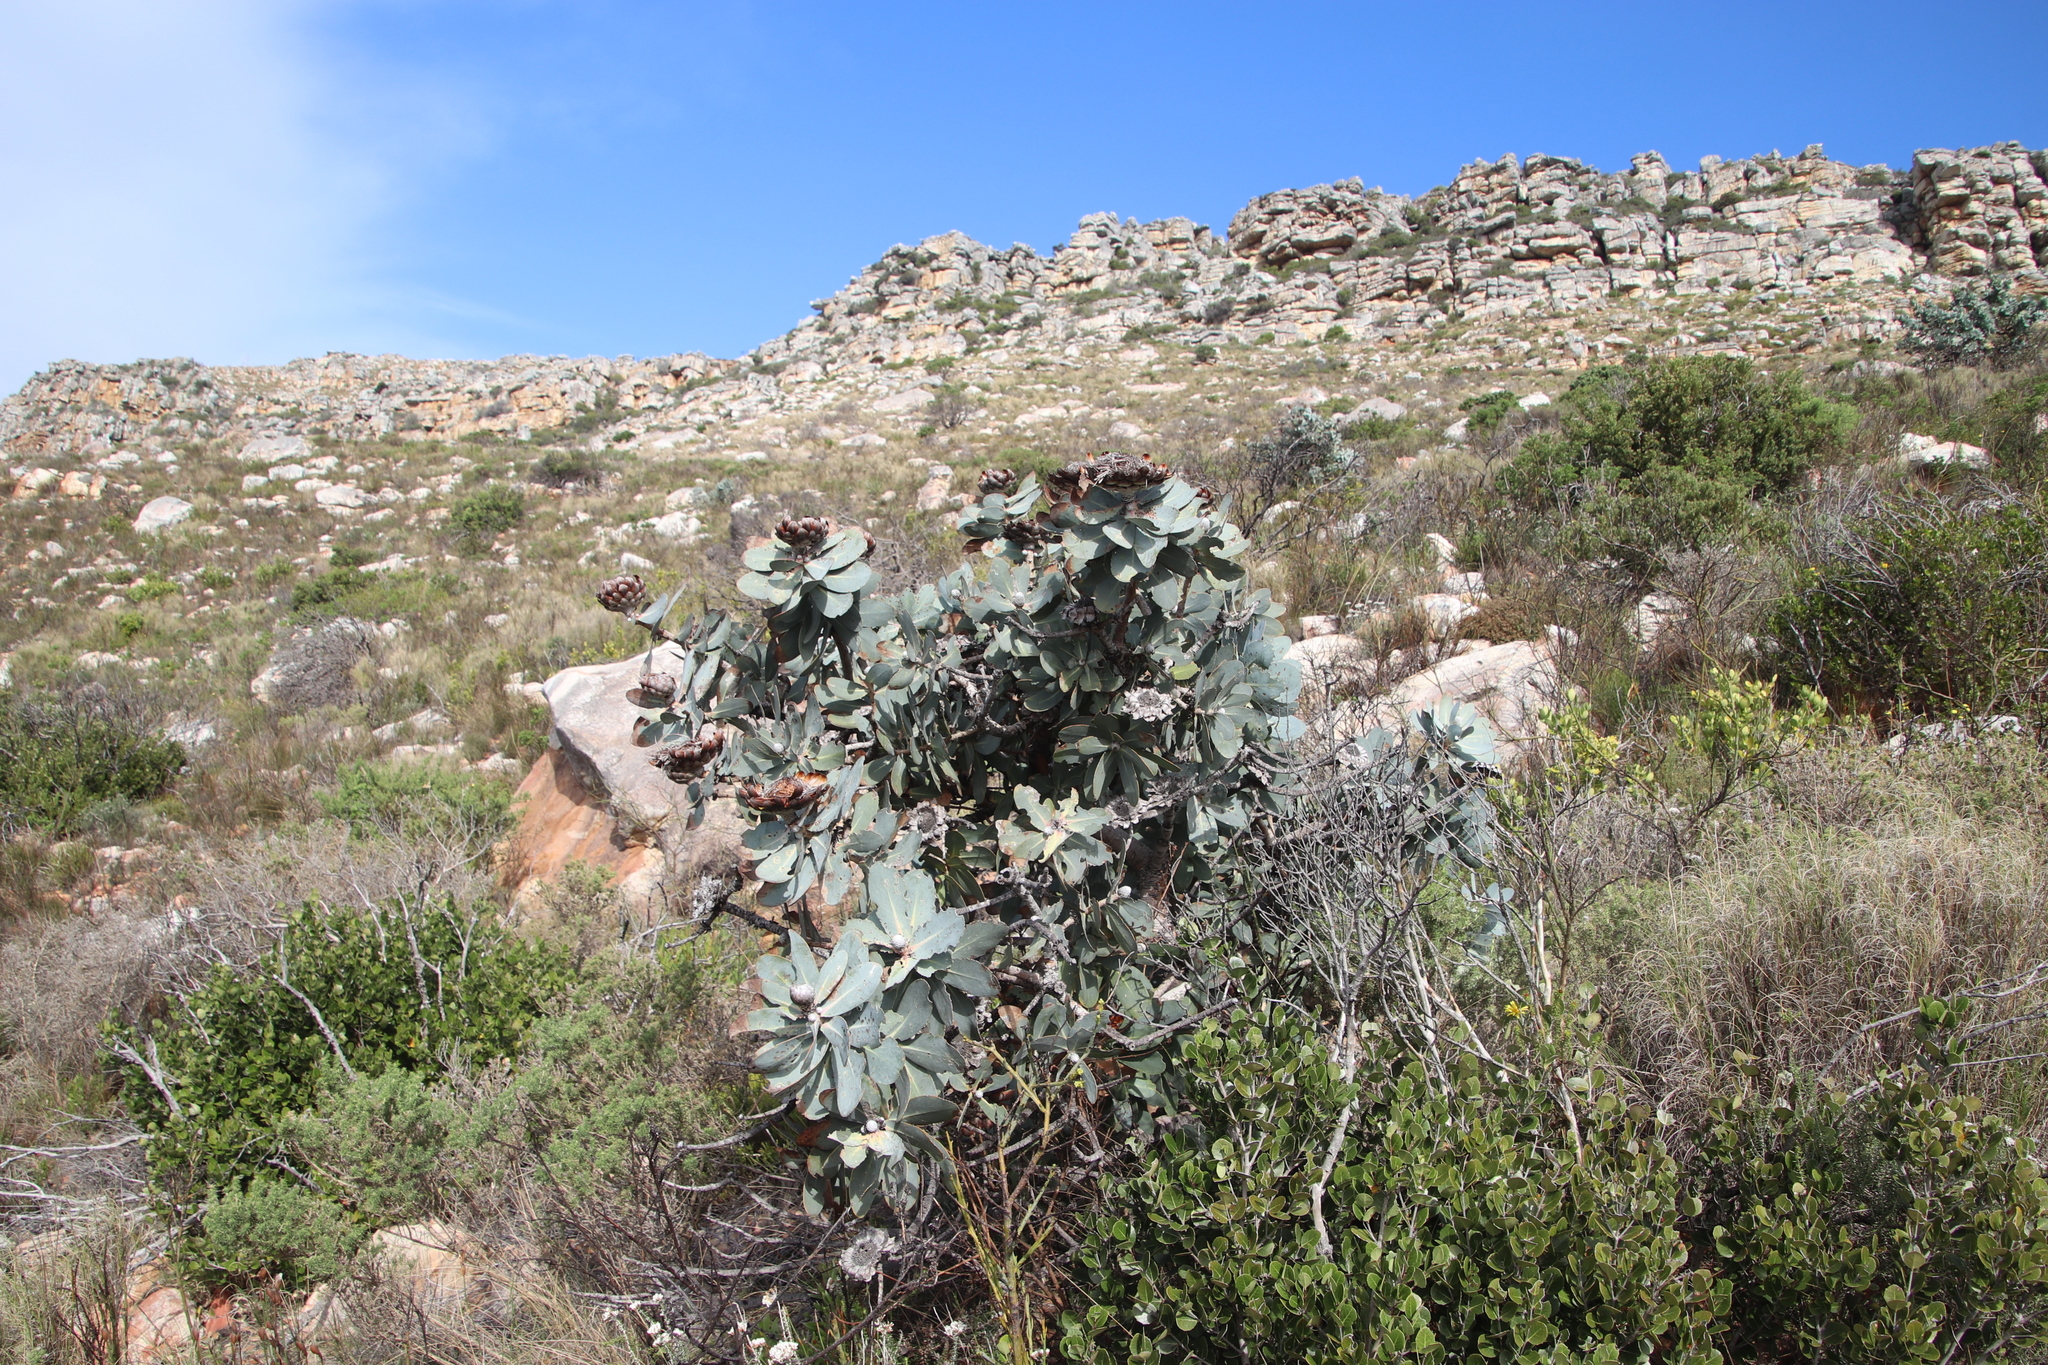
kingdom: Plantae
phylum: Tracheophyta
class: Magnoliopsida
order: Proteales
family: Proteaceae
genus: Protea
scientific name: Protea nitida
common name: Tree protea
